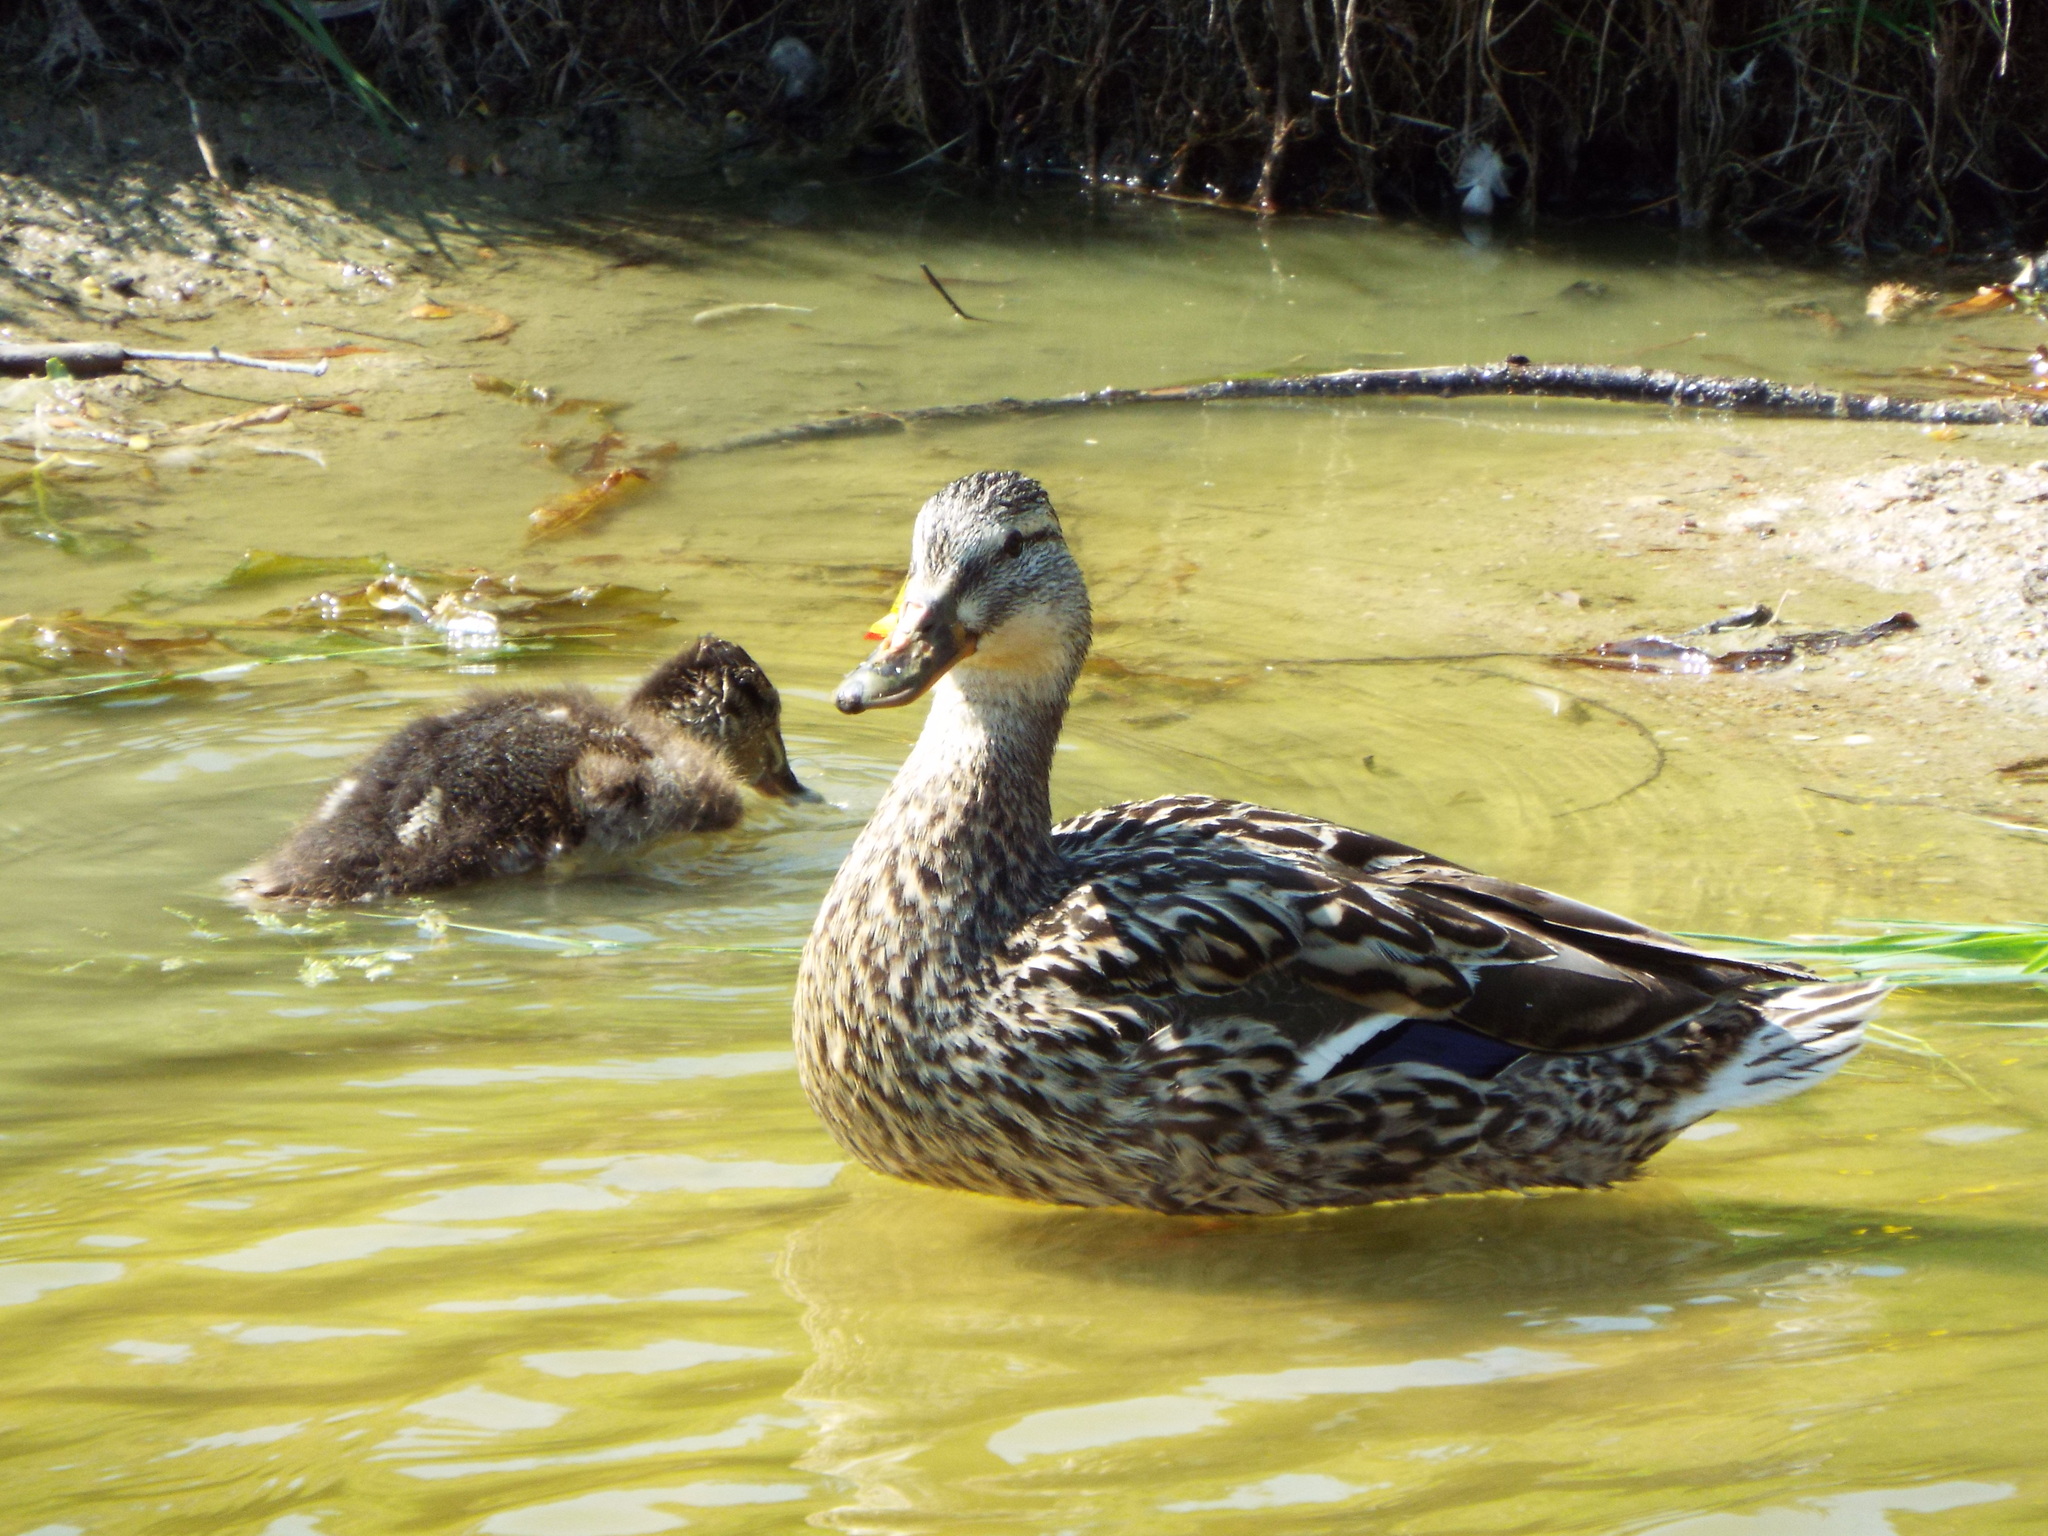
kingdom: Animalia
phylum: Chordata
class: Aves
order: Anseriformes
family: Anatidae
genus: Anas
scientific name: Anas platyrhynchos
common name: Mallard
